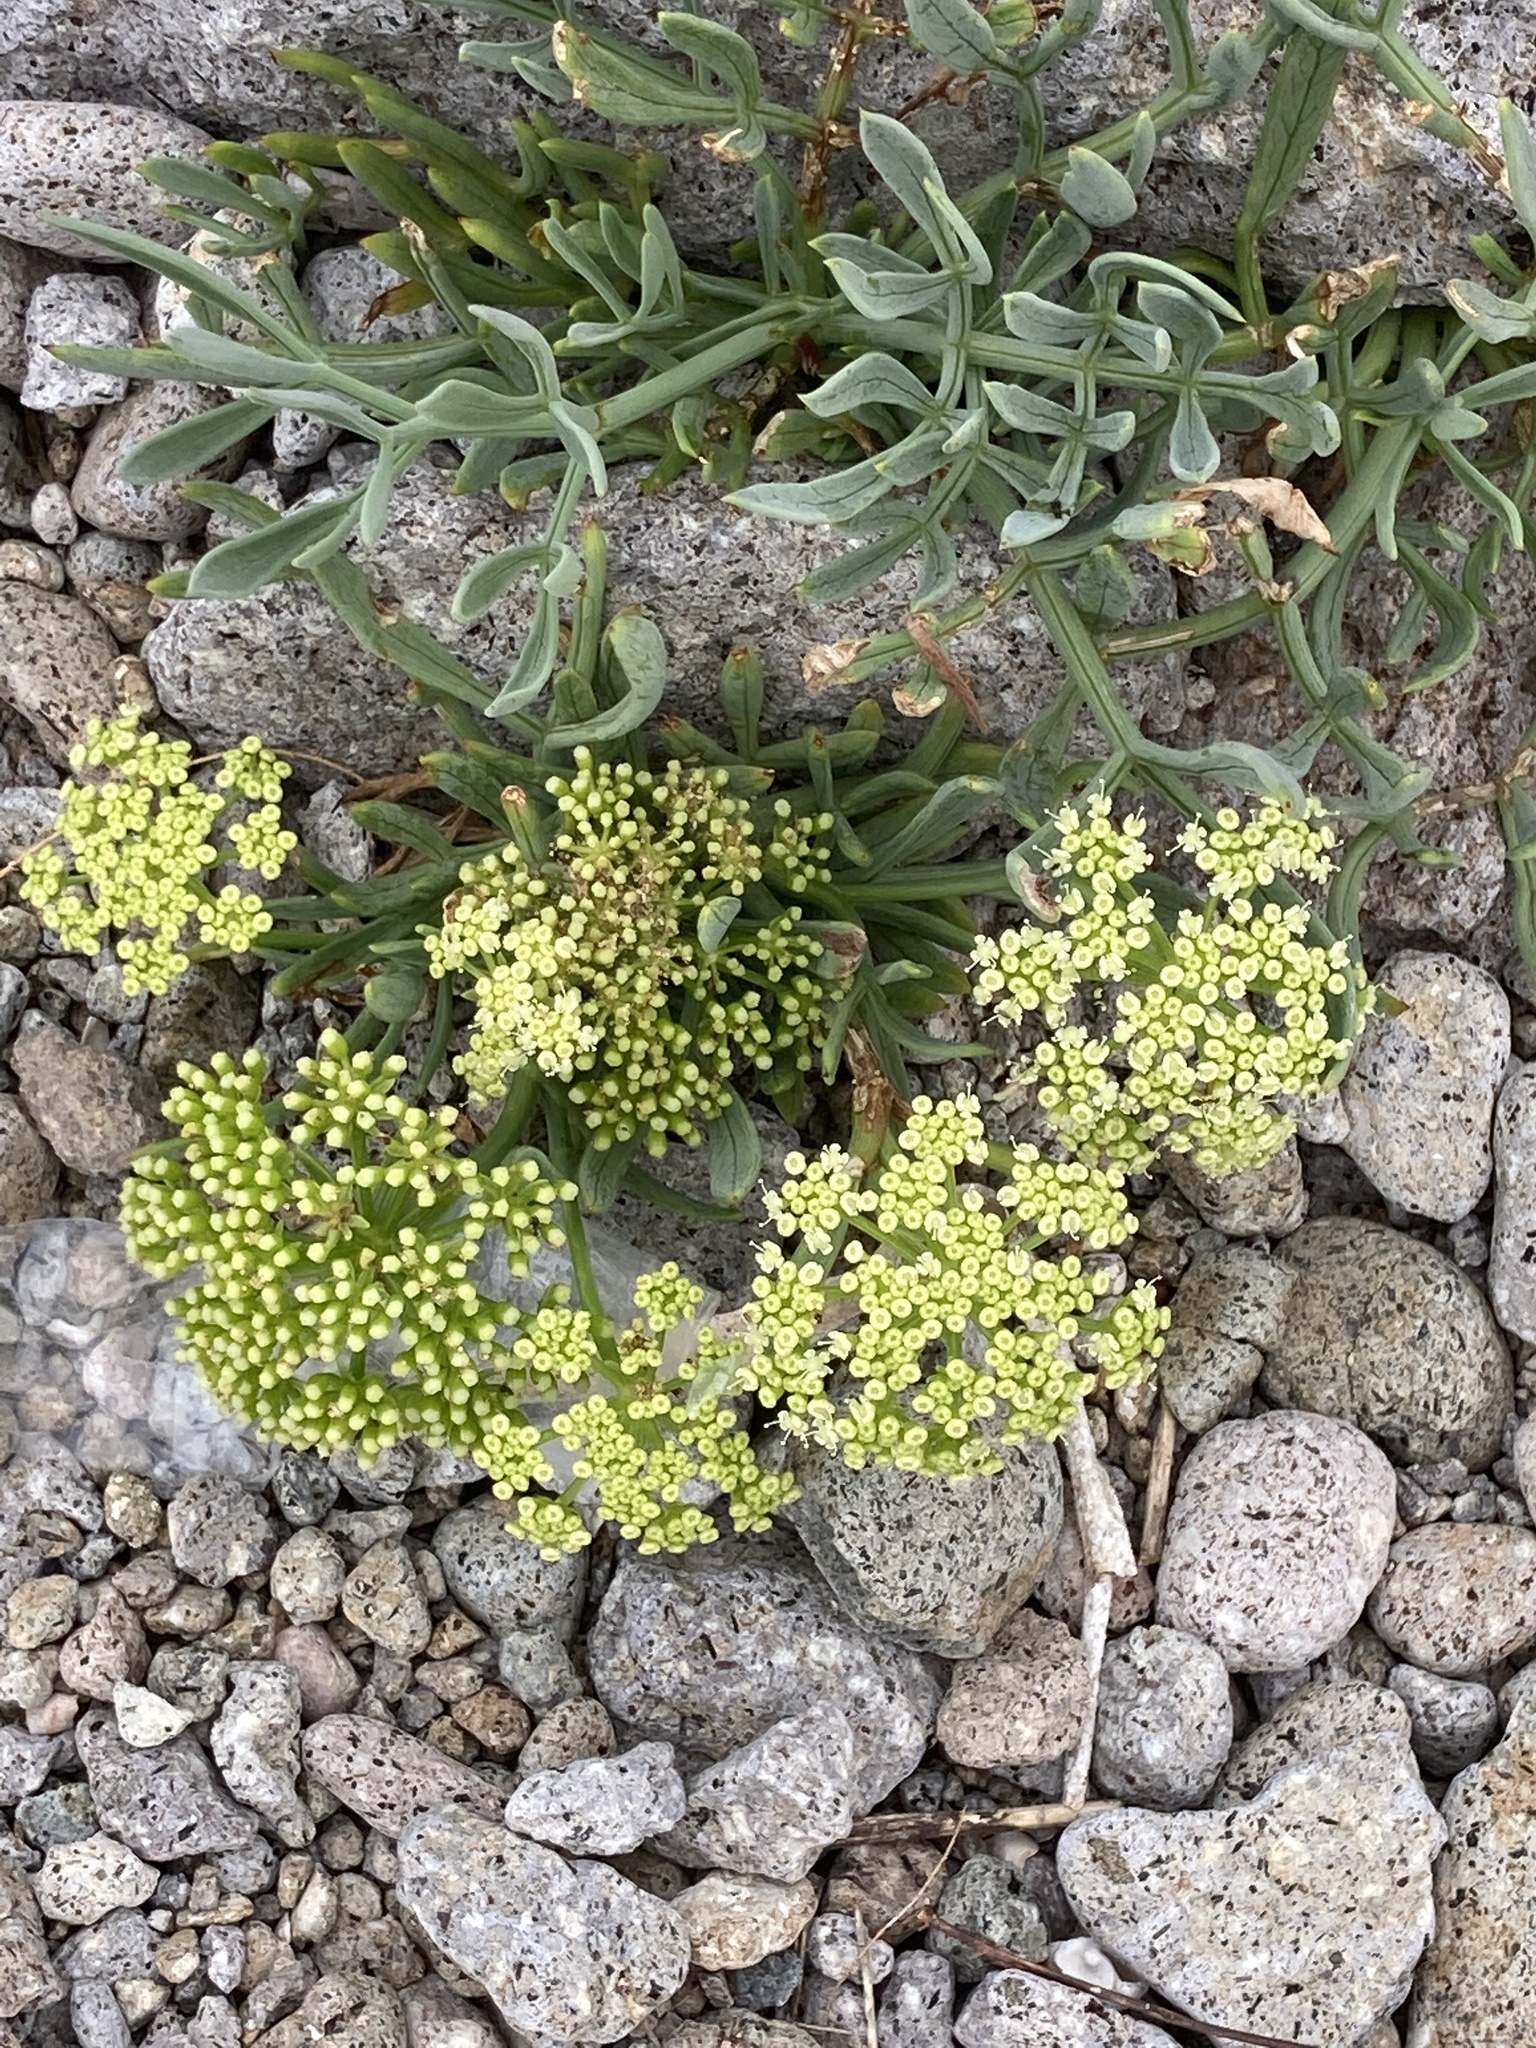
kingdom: Plantae
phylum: Tracheophyta
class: Magnoliopsida
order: Apiales
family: Apiaceae
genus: Crithmum
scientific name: Crithmum maritimum
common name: Rock samphire
